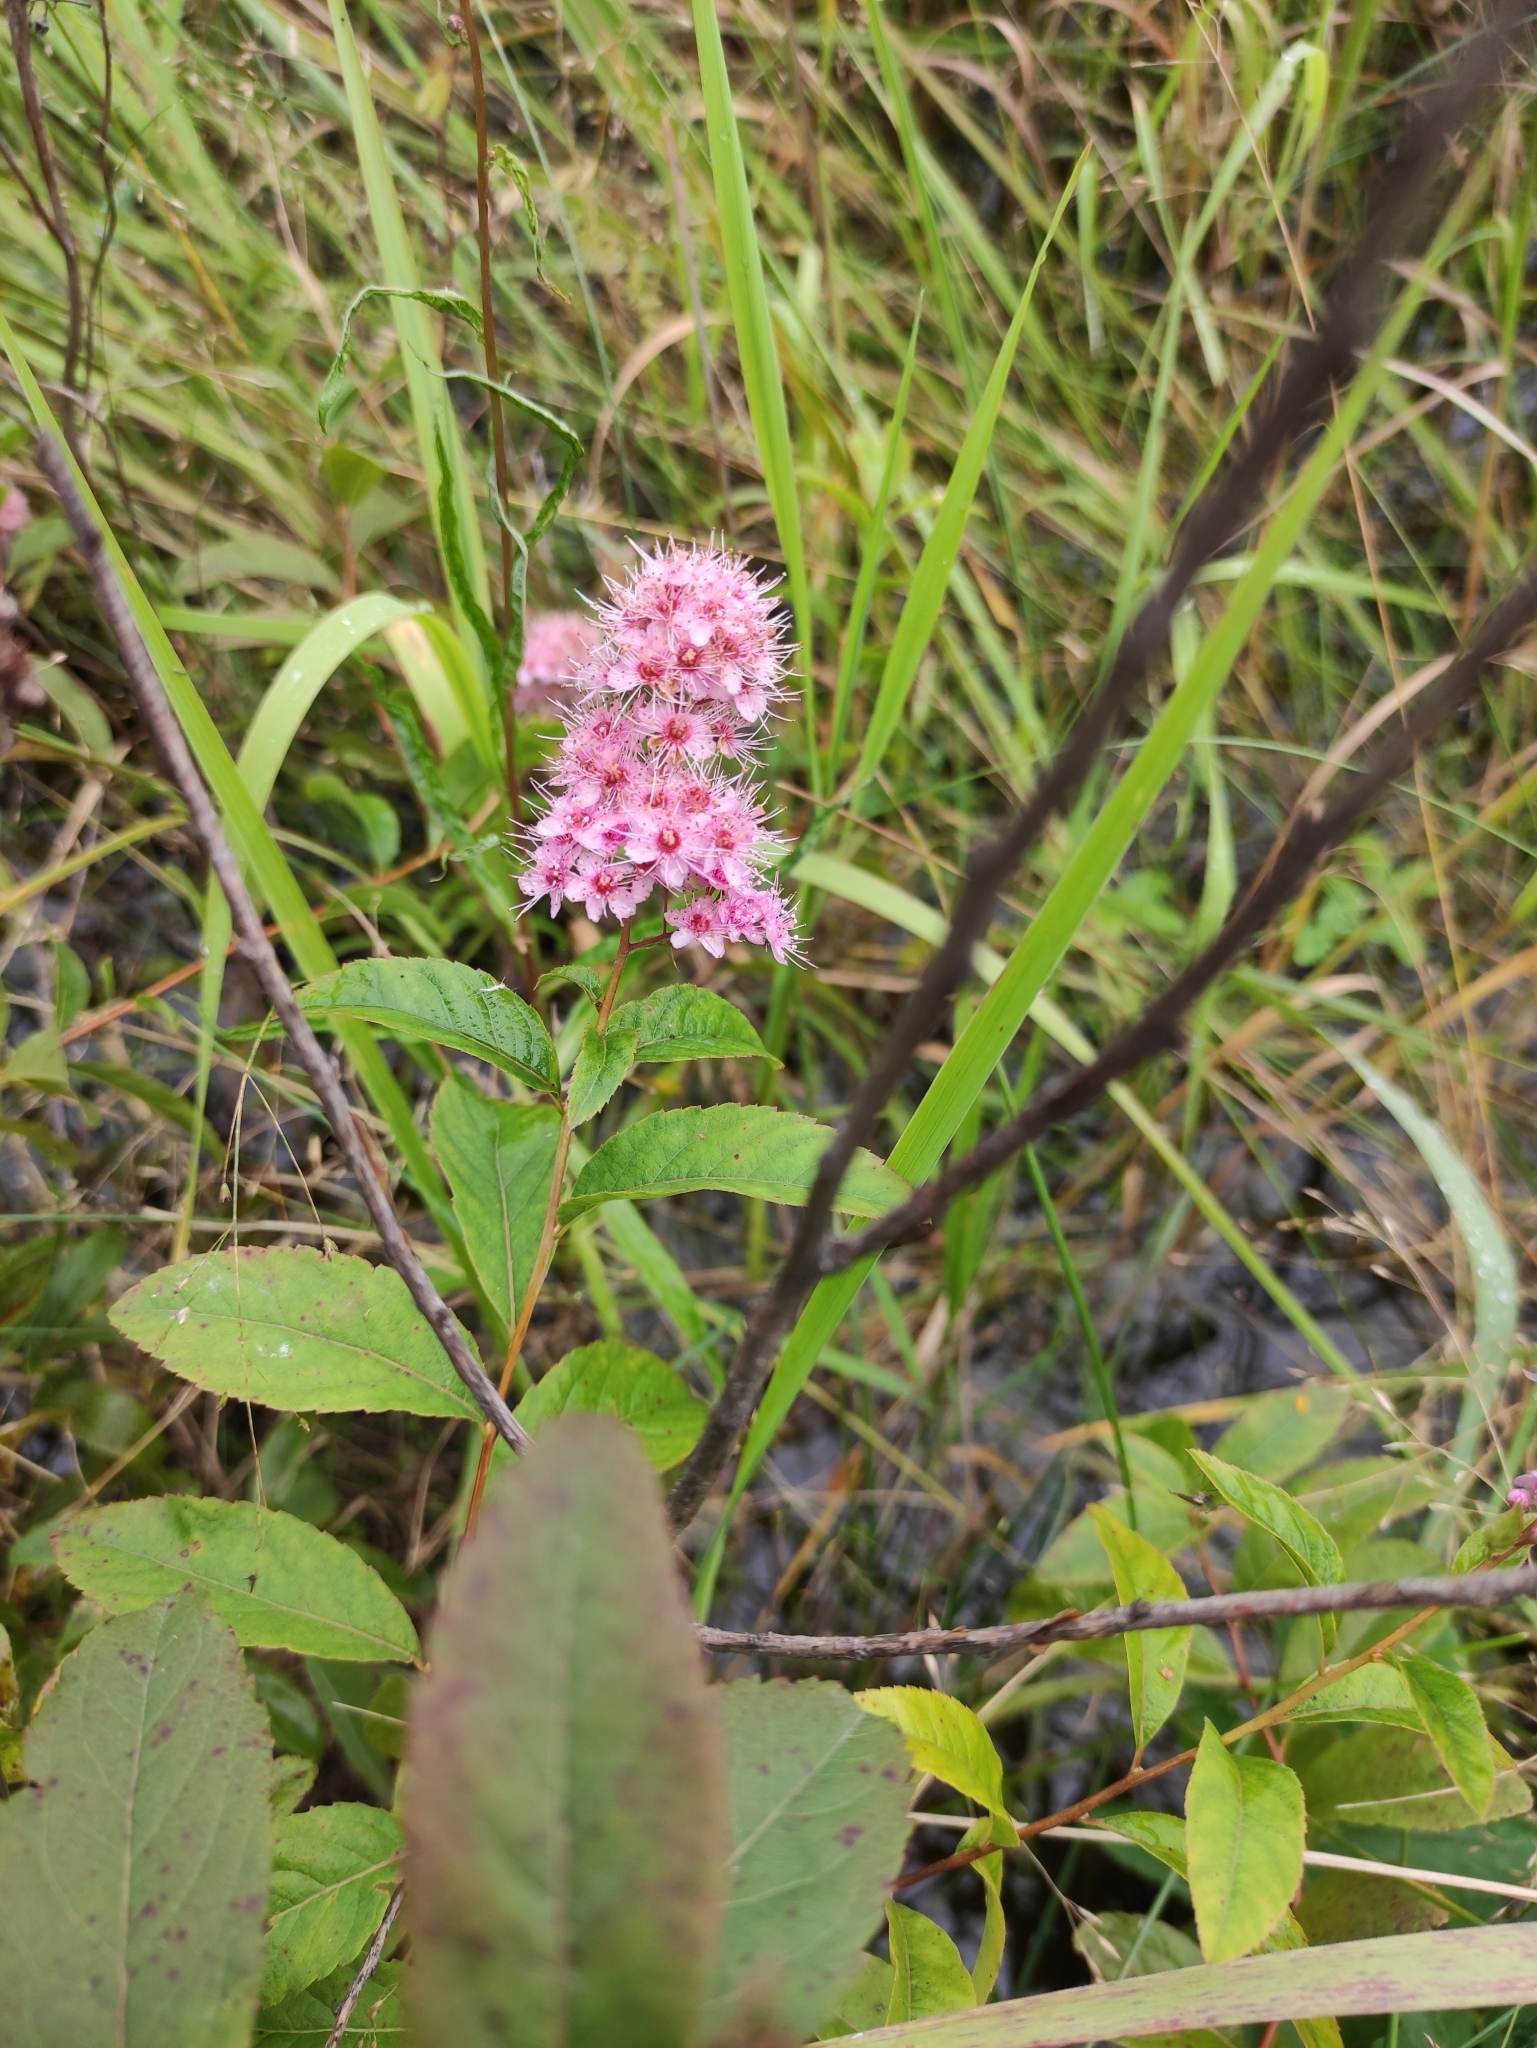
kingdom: Plantae
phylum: Tracheophyta
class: Magnoliopsida
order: Rosales
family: Rosaceae
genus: Spiraea
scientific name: Spiraea salicifolia
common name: Bridewort
